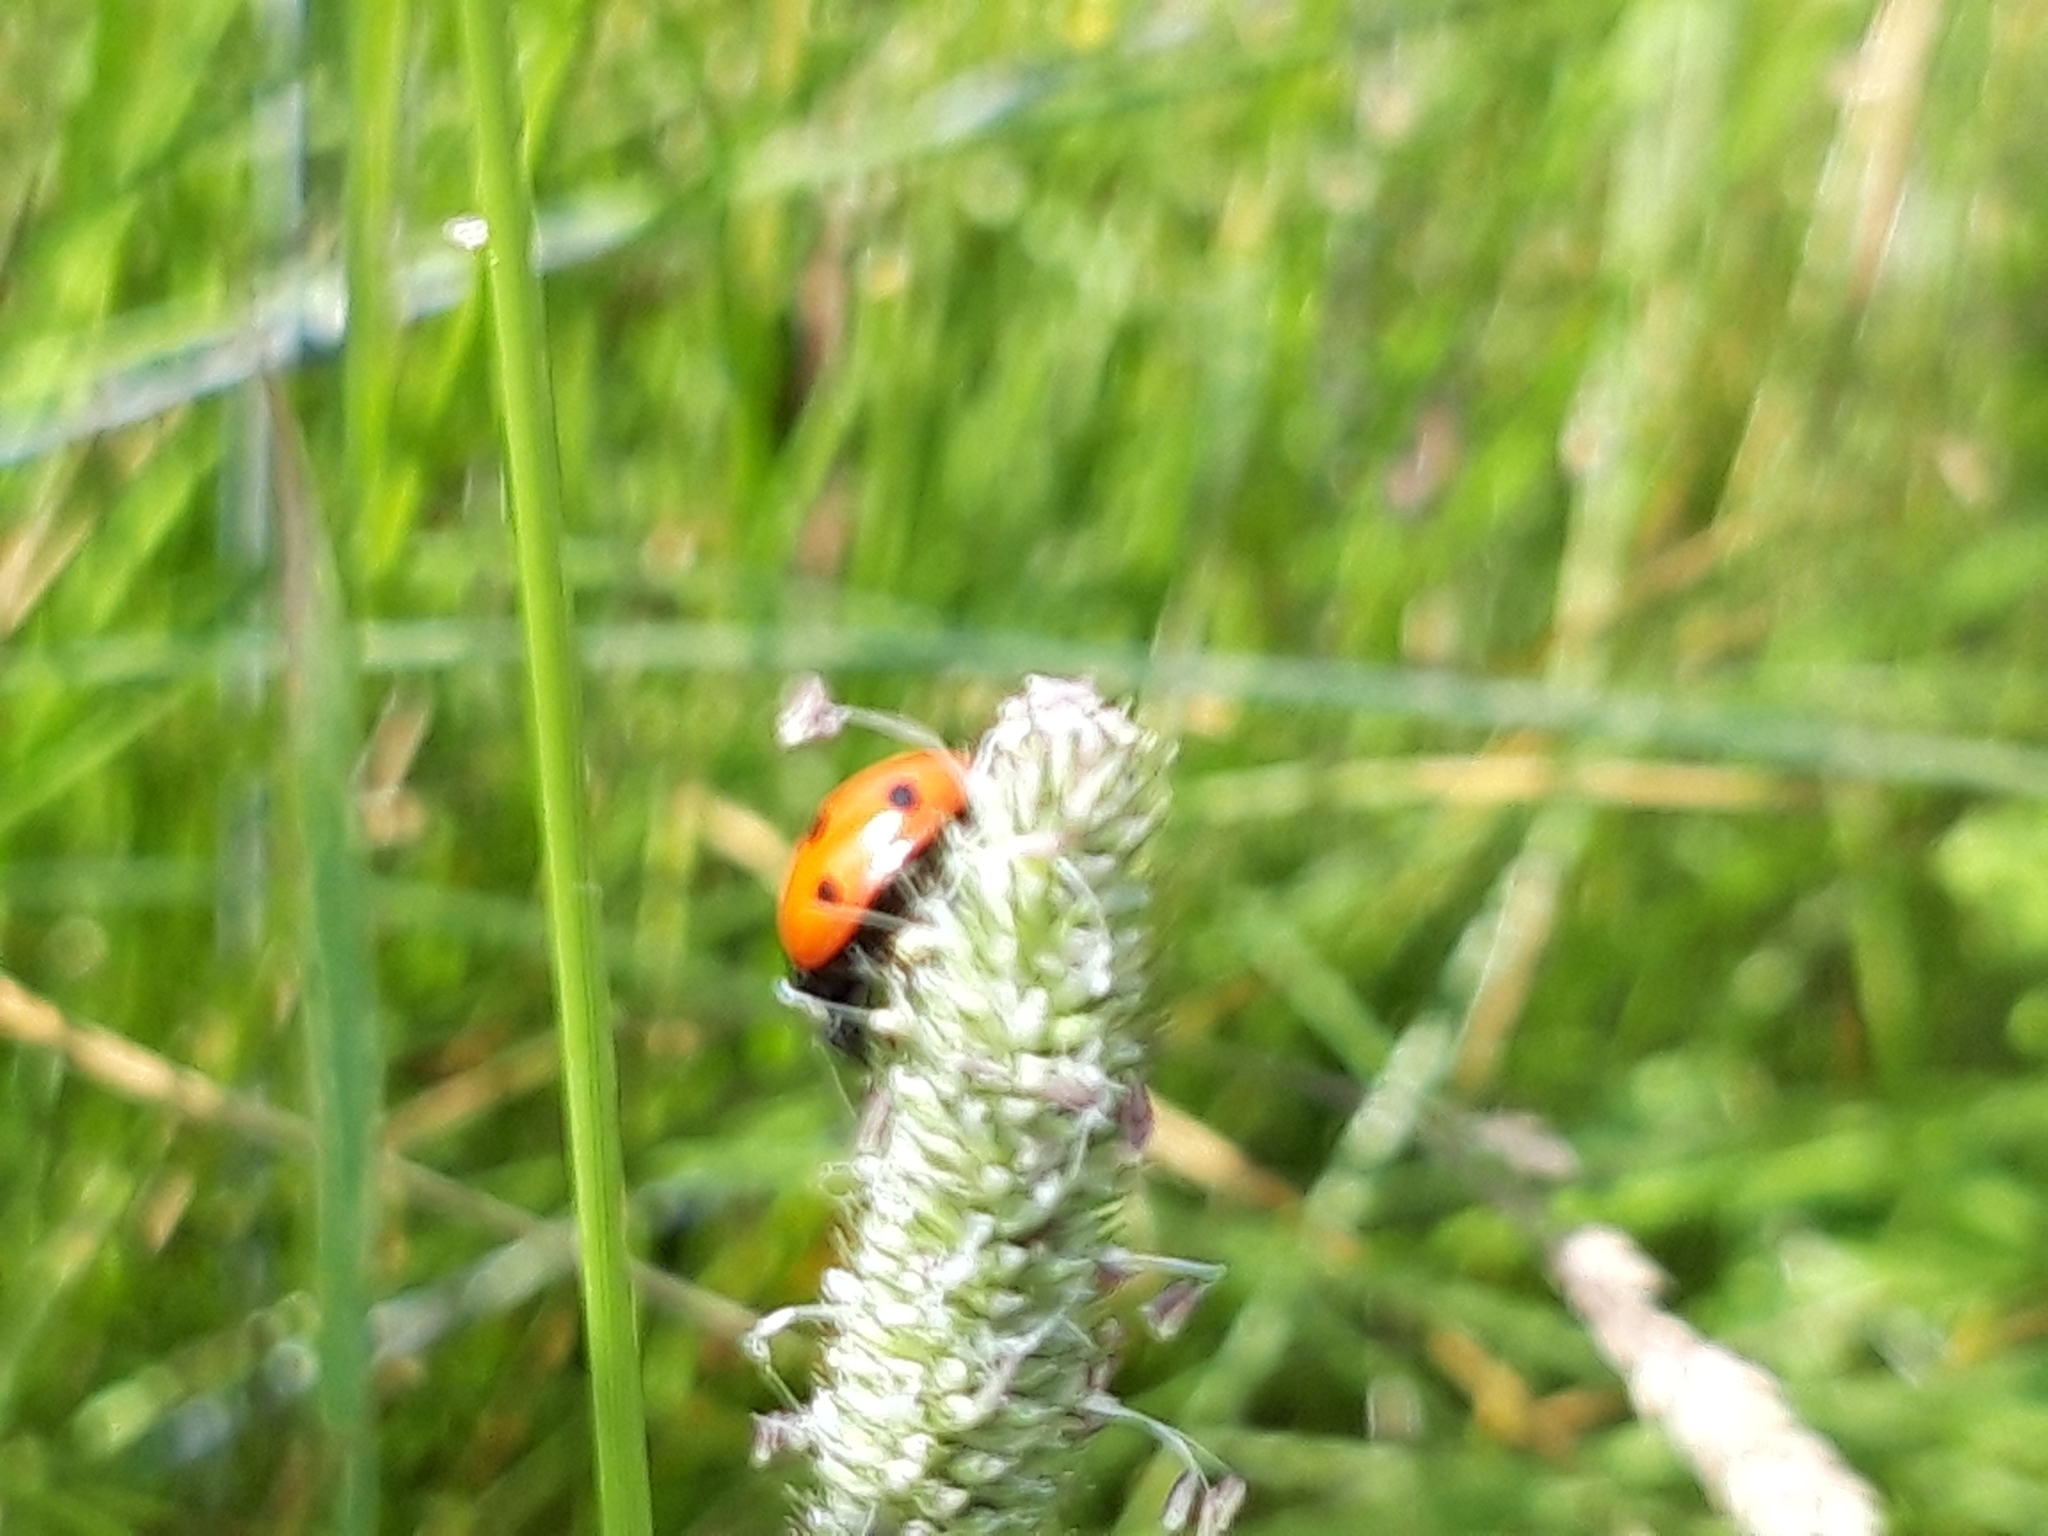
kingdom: Animalia
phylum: Arthropoda
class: Insecta
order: Coleoptera
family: Coccinellidae
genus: Coccinella
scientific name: Coccinella septempunctata
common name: Sevenspotted lady beetle
